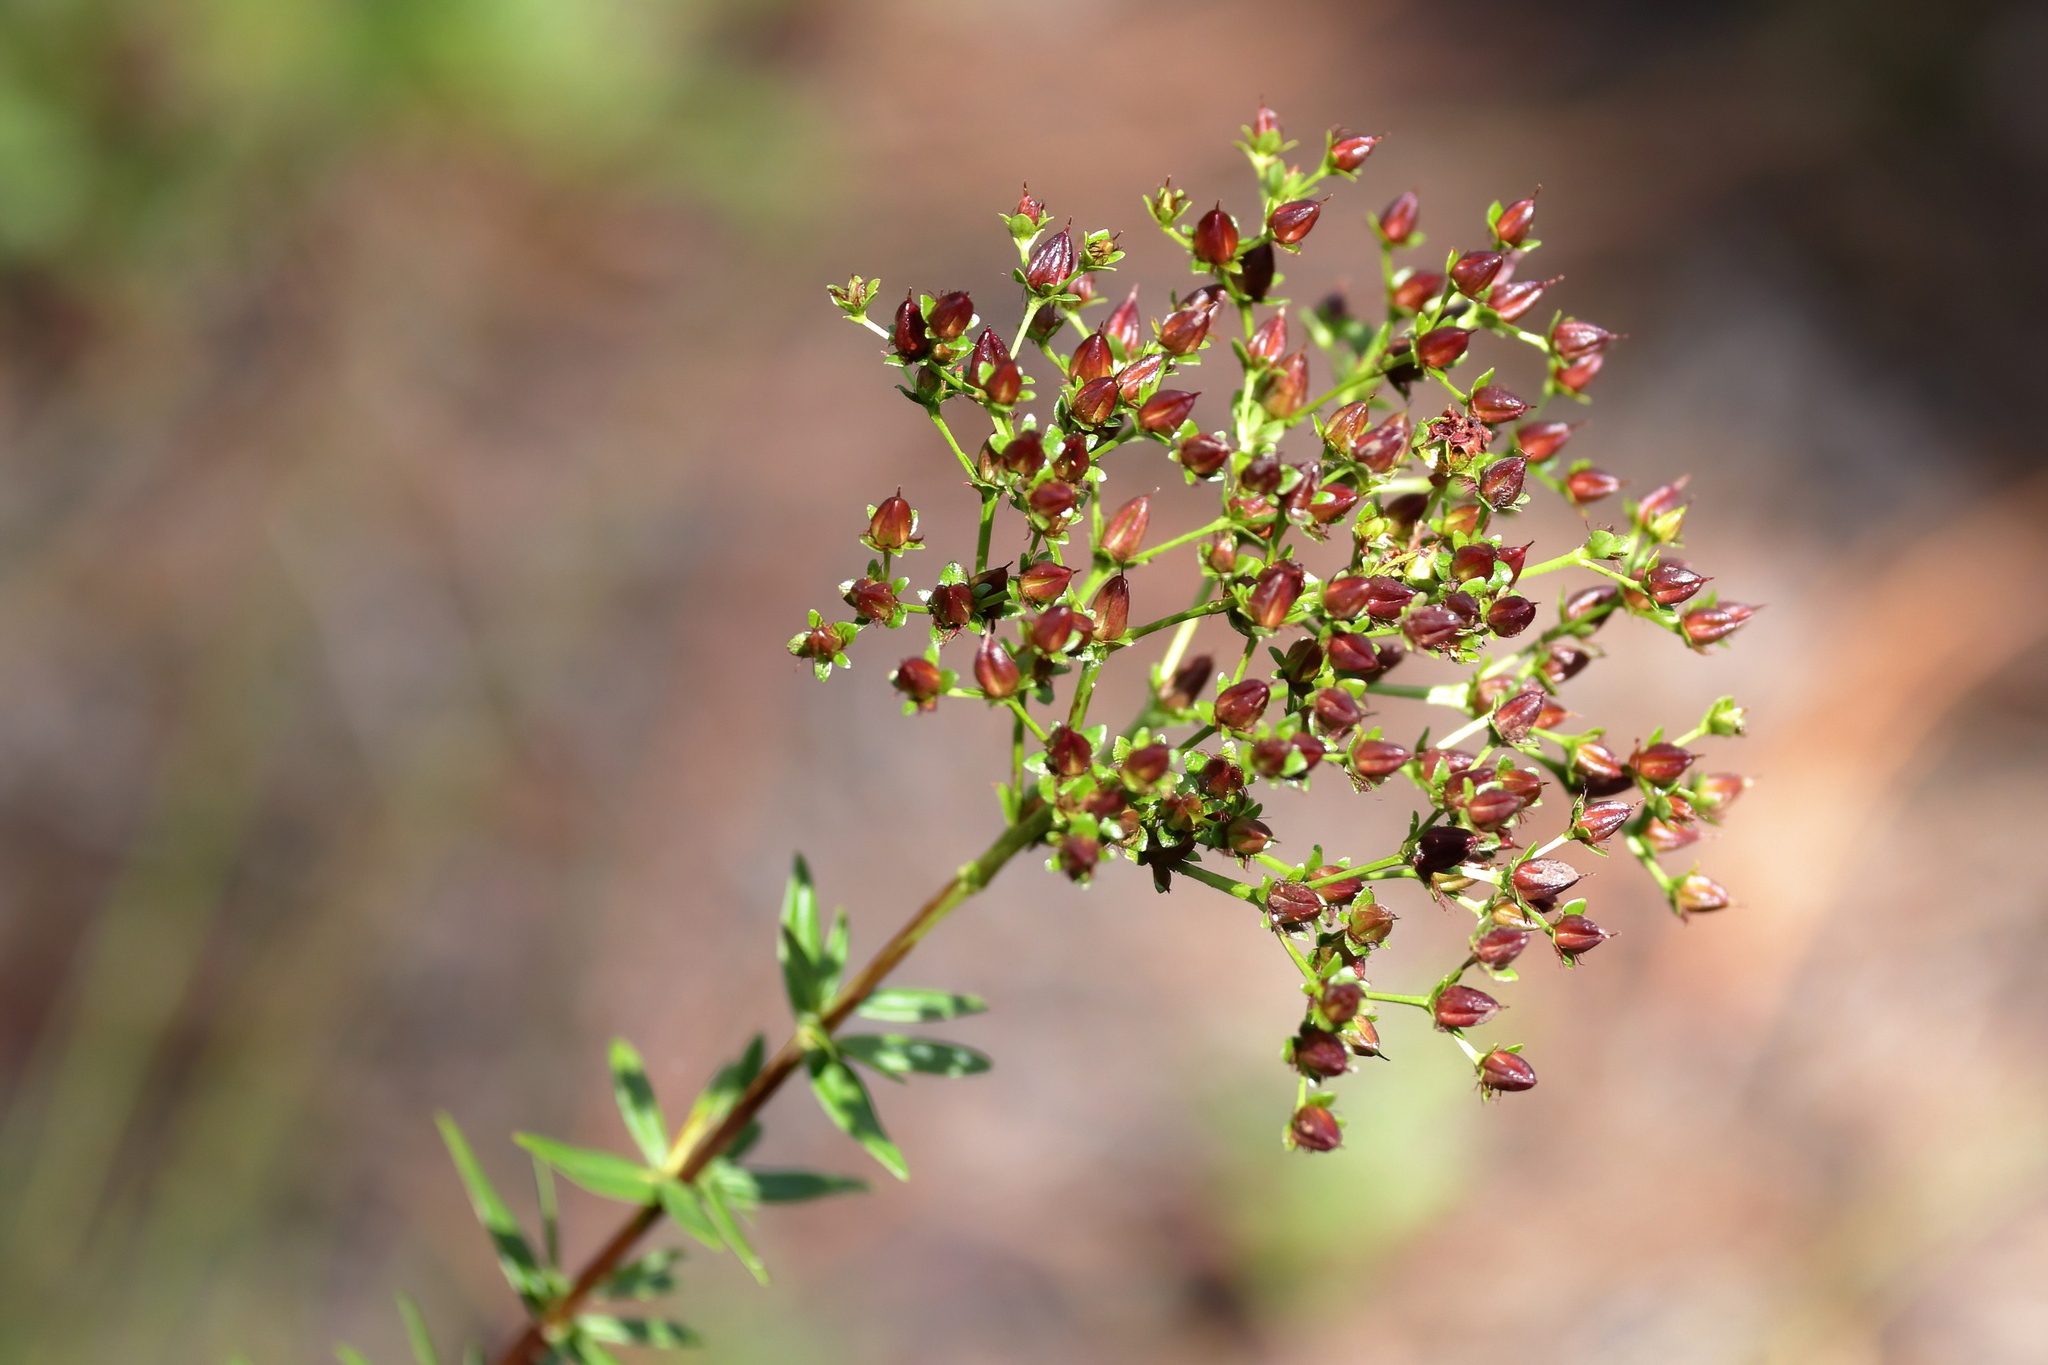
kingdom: Plantae
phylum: Tracheophyta
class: Magnoliopsida
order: Malpighiales
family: Hypericaceae
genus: Hypericum
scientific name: Hypericum cistifolium
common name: Round-pod st. john's-wort
